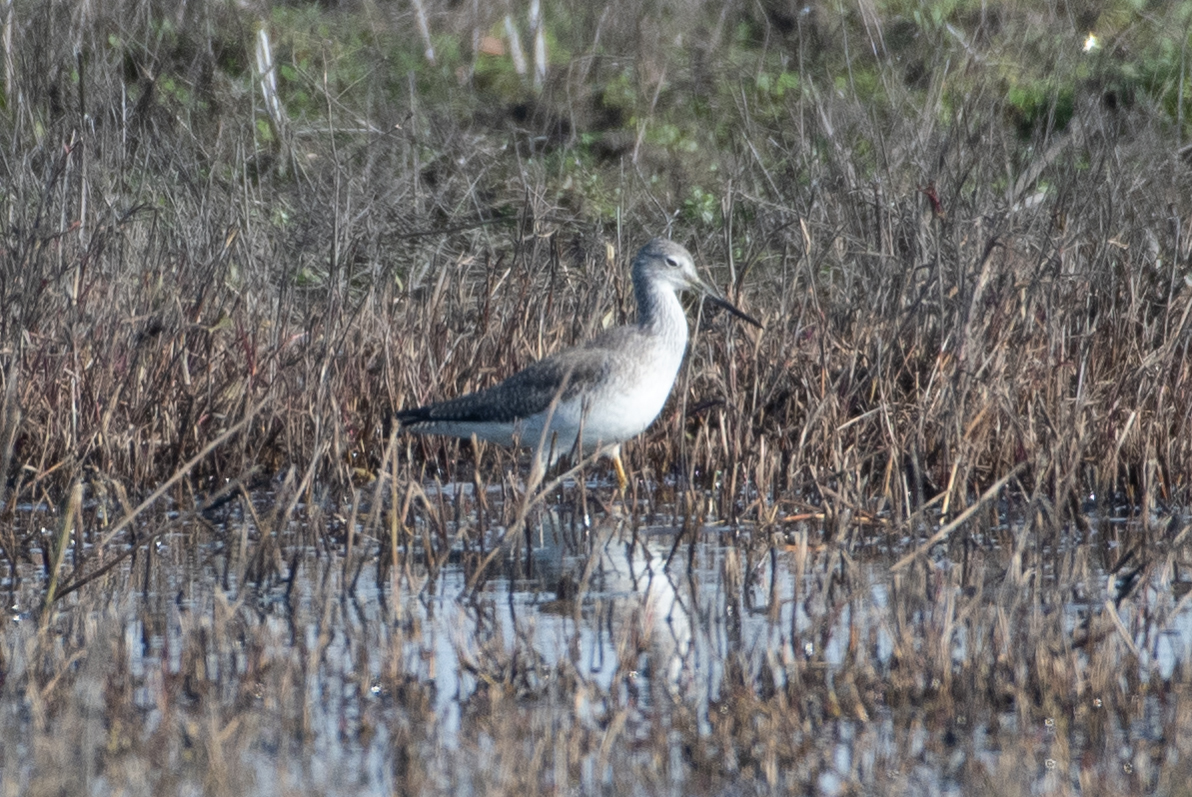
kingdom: Animalia
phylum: Chordata
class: Aves
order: Charadriiformes
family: Scolopacidae
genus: Tringa
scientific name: Tringa melanoleuca
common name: Greater yellowlegs
